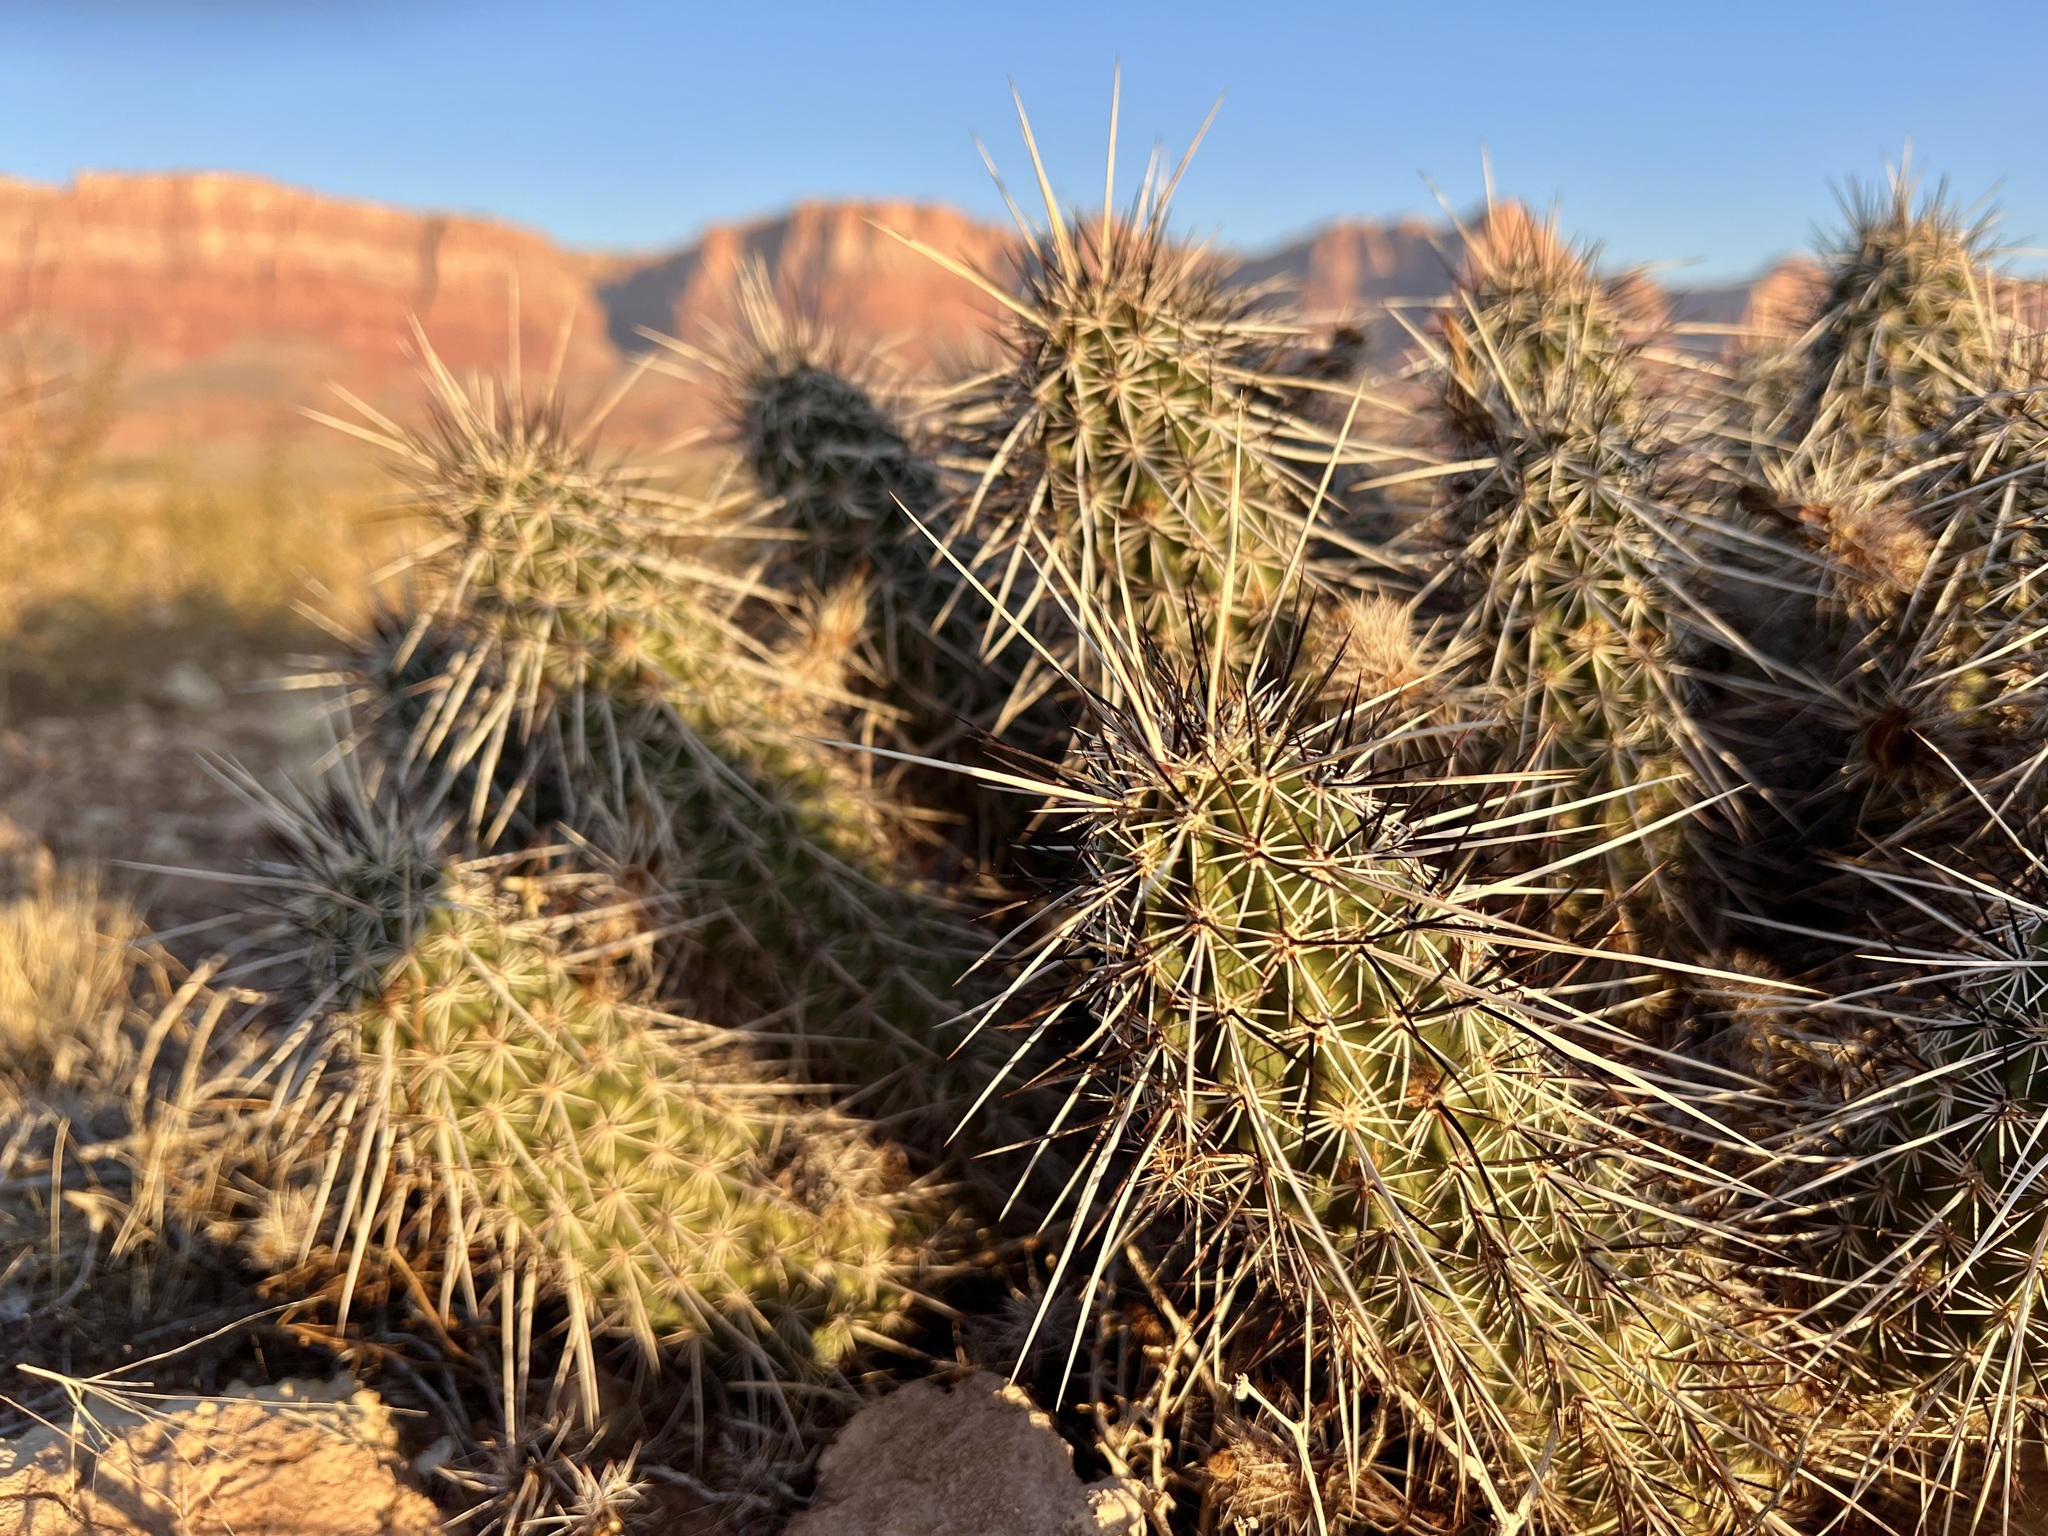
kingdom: Plantae
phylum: Tracheophyta
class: Magnoliopsida
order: Caryophyllales
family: Cactaceae
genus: Echinocereus
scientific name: Echinocereus engelmannii
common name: Engelmann's hedgehog cactus
